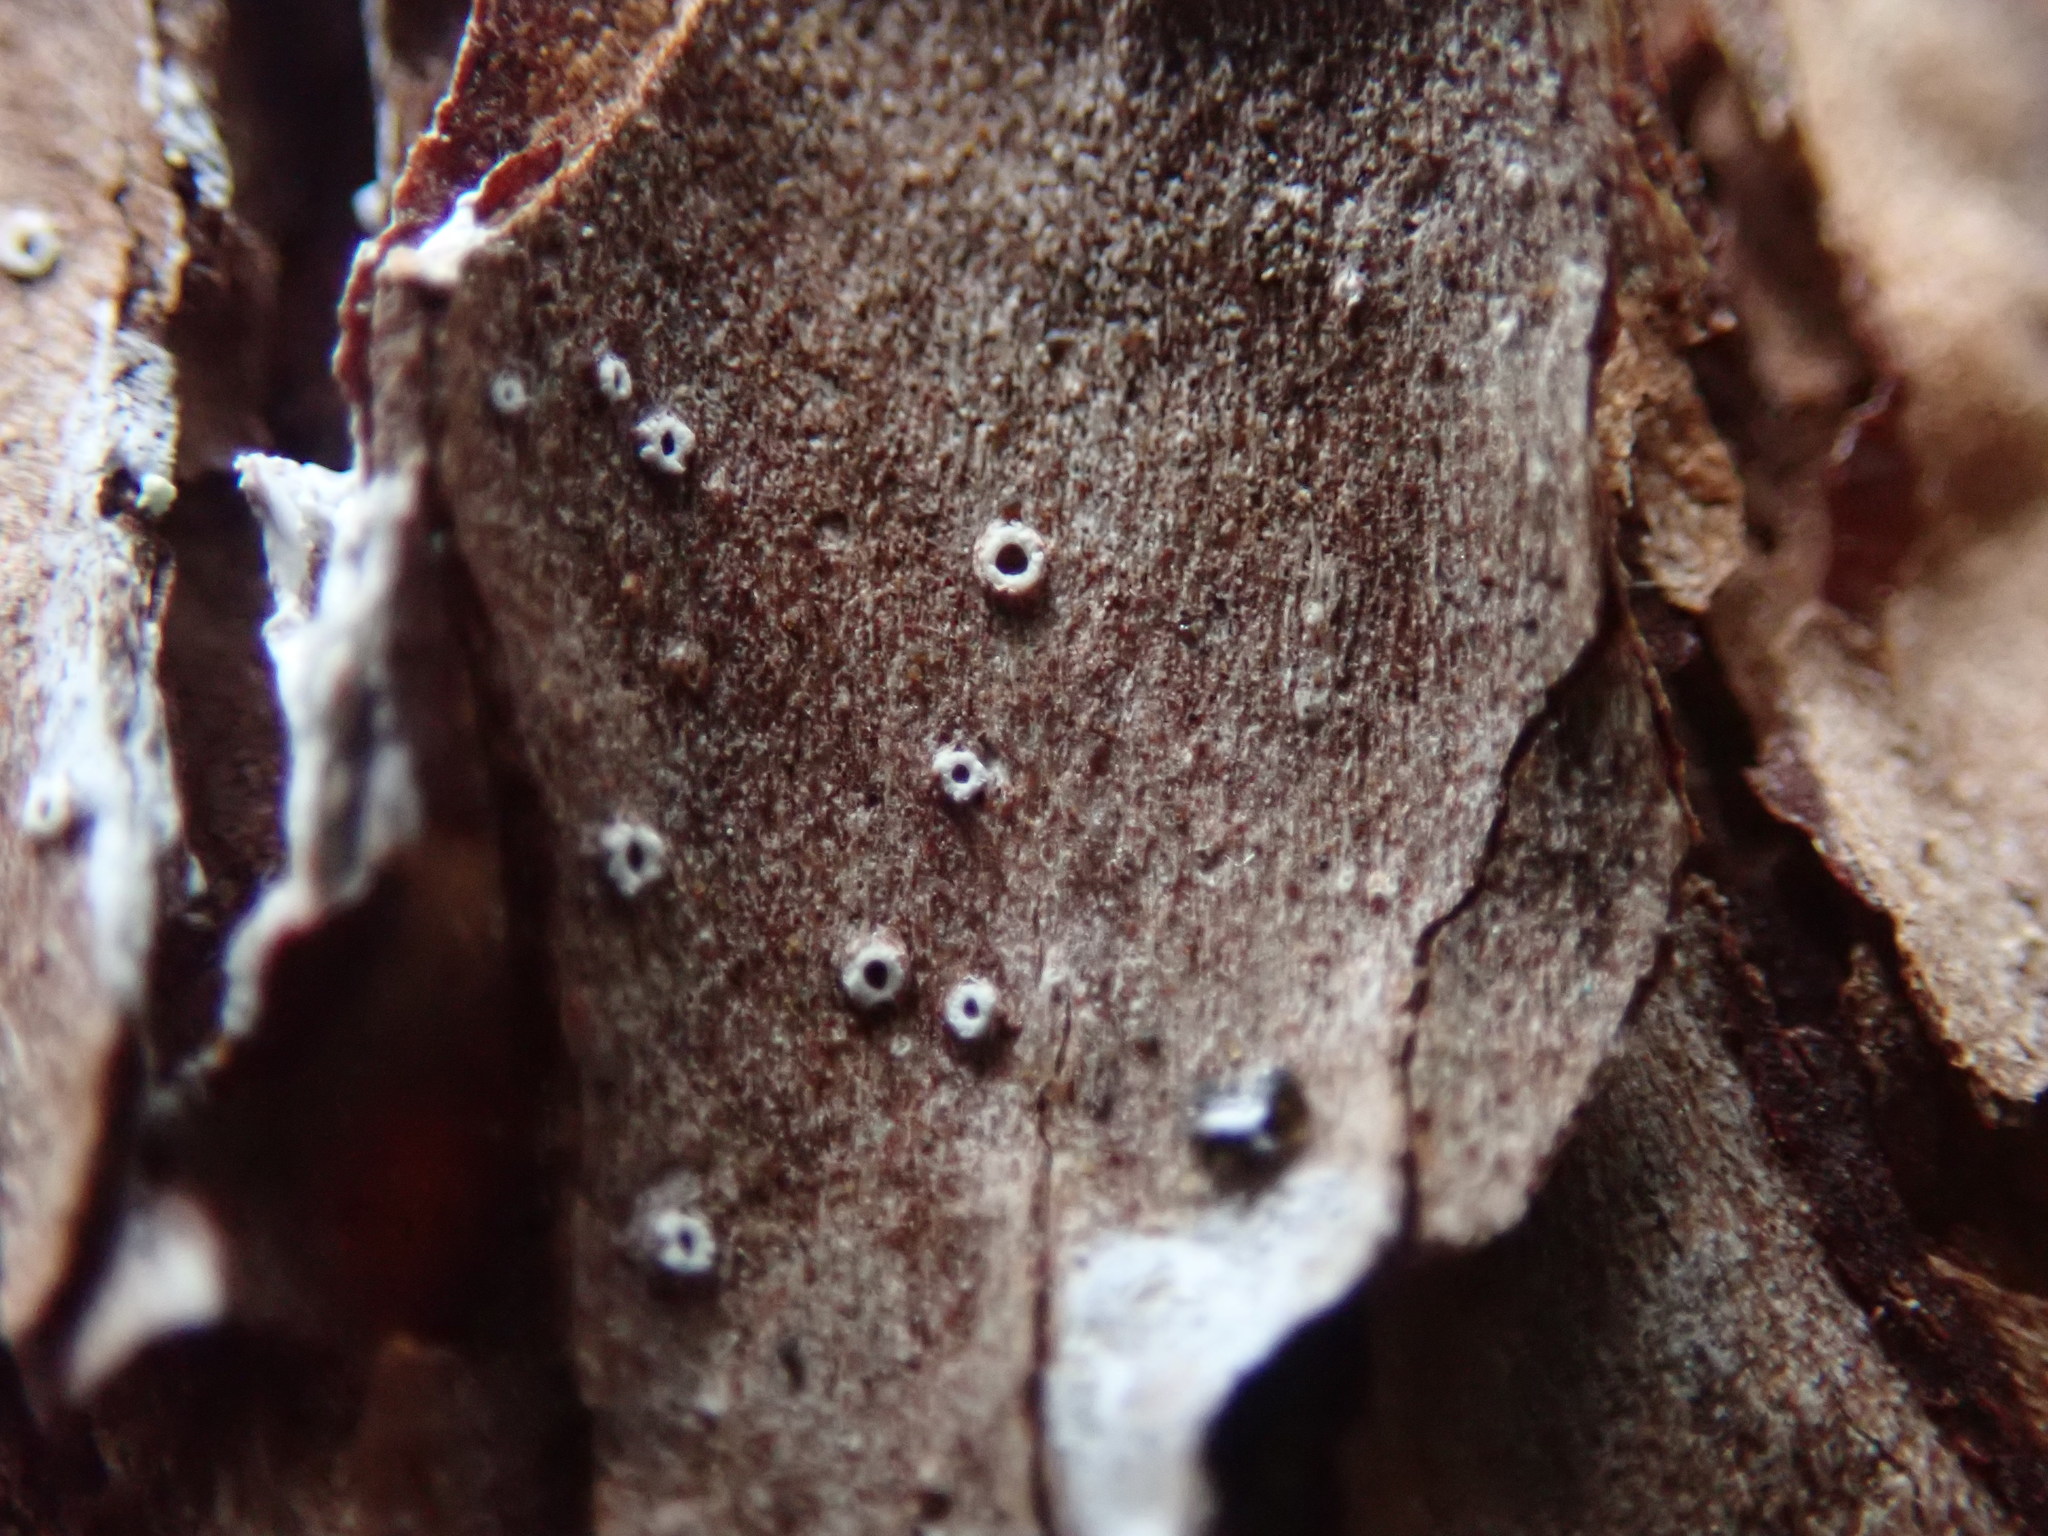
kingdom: Fungi
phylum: Ascomycota
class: Lecanoromycetes
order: Ostropales
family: Stictidaceae
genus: Stictis
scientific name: Stictis radiata
